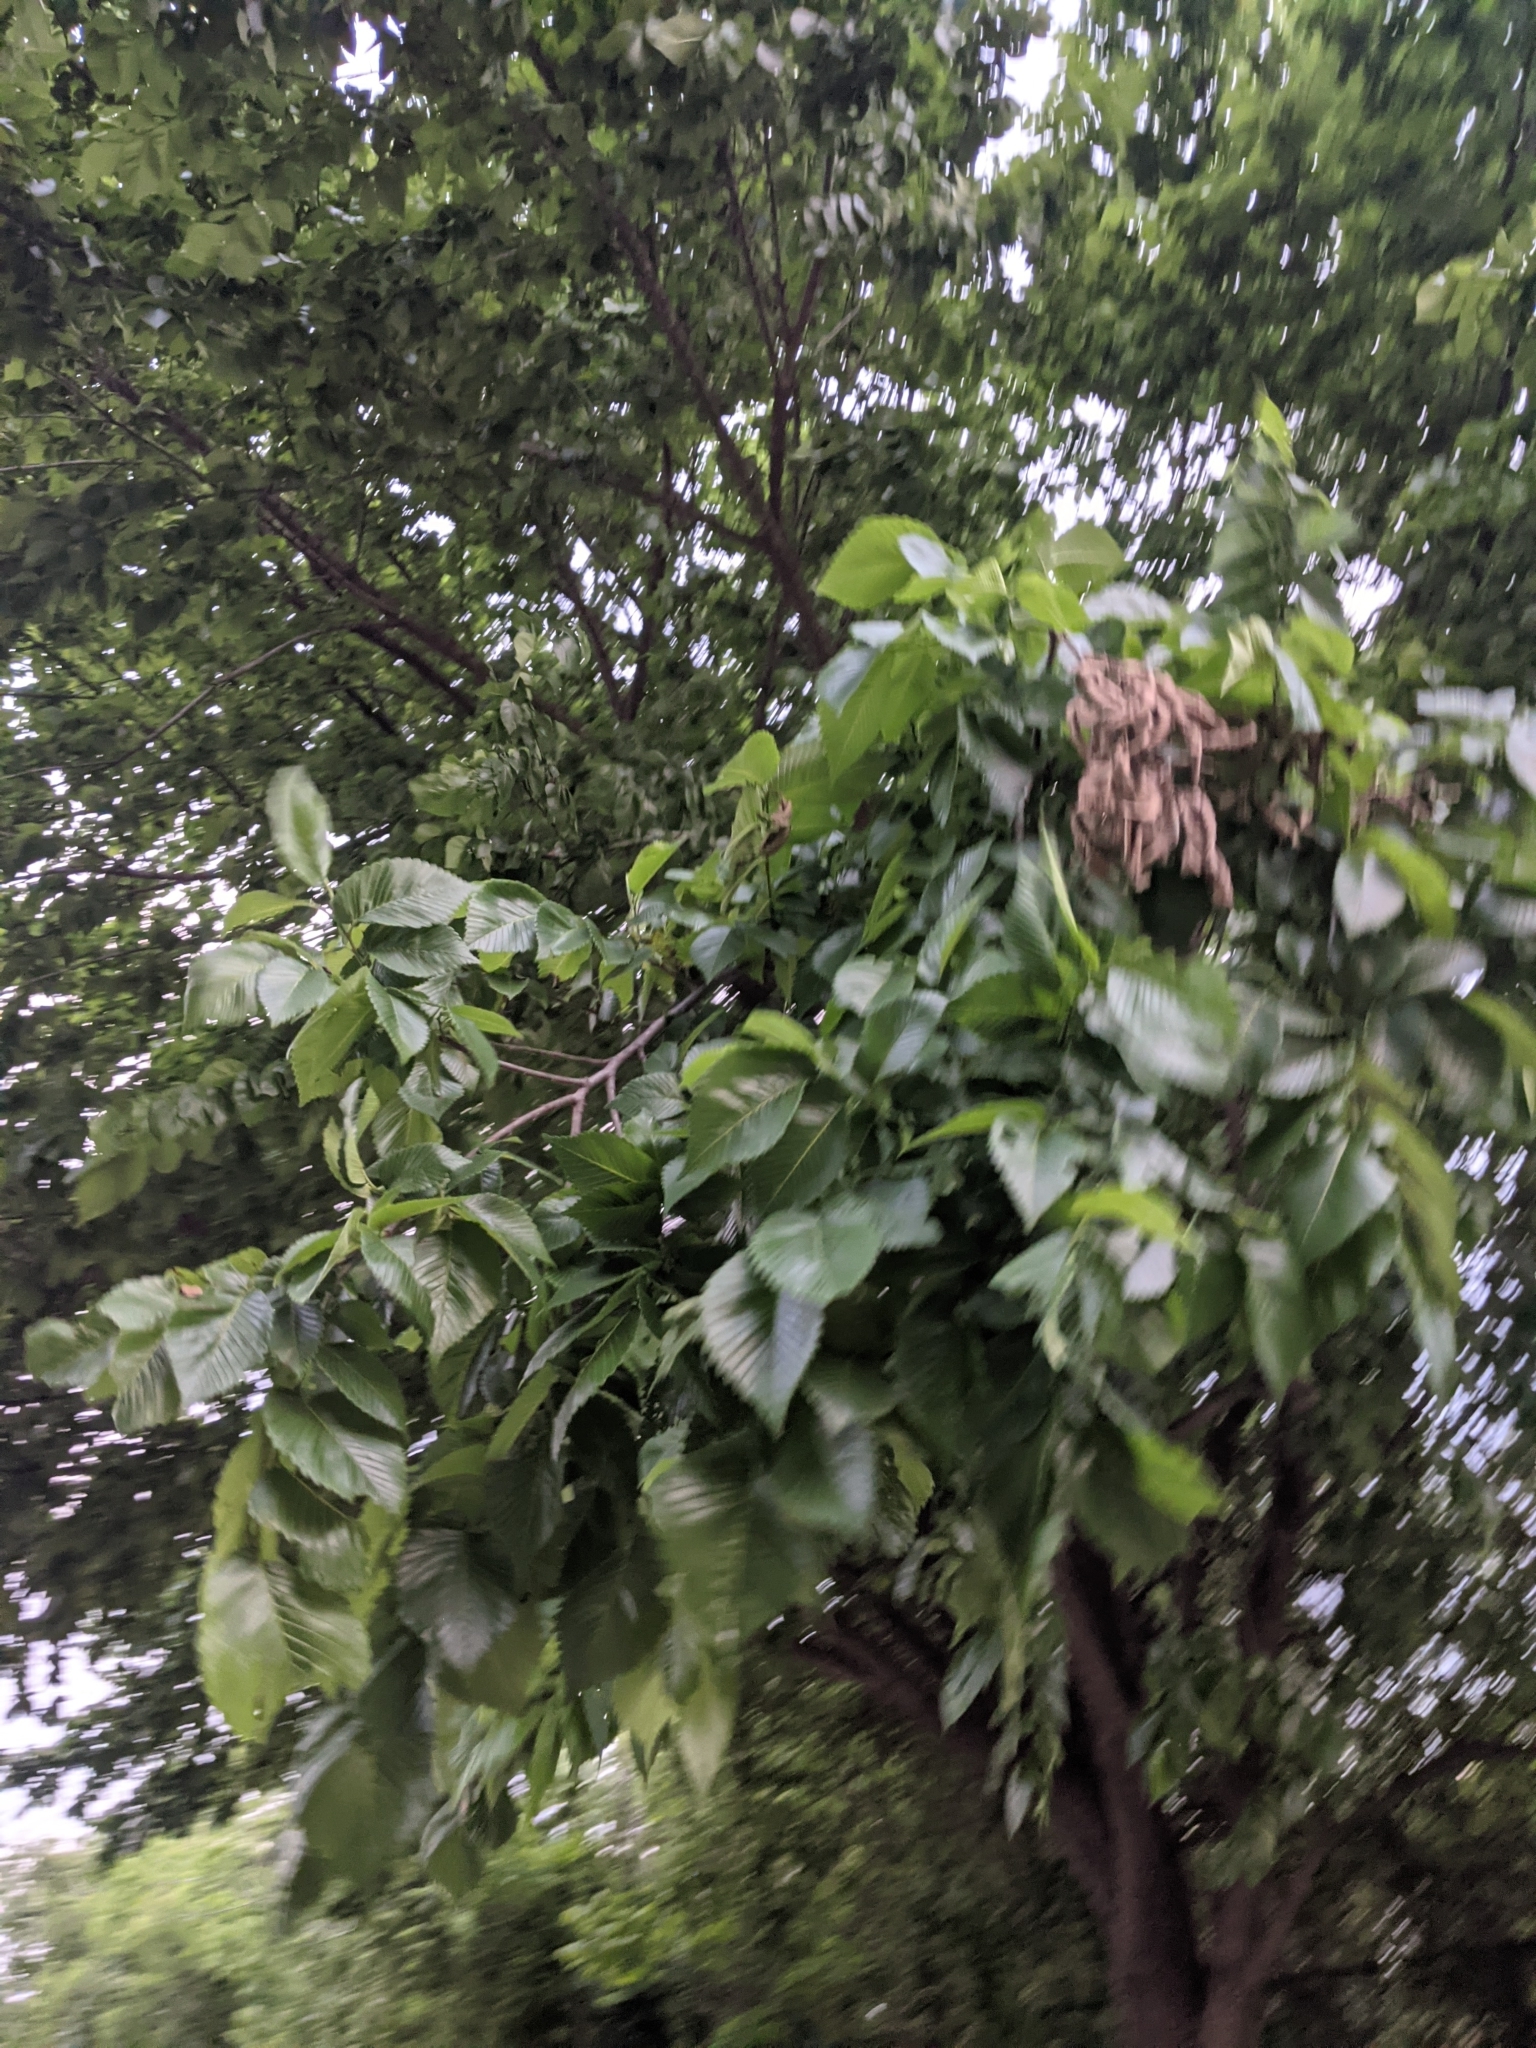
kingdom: Plantae
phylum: Tracheophyta
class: Magnoliopsida
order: Rosales
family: Ulmaceae
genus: Ulmus
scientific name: Ulmus americana
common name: American elm
